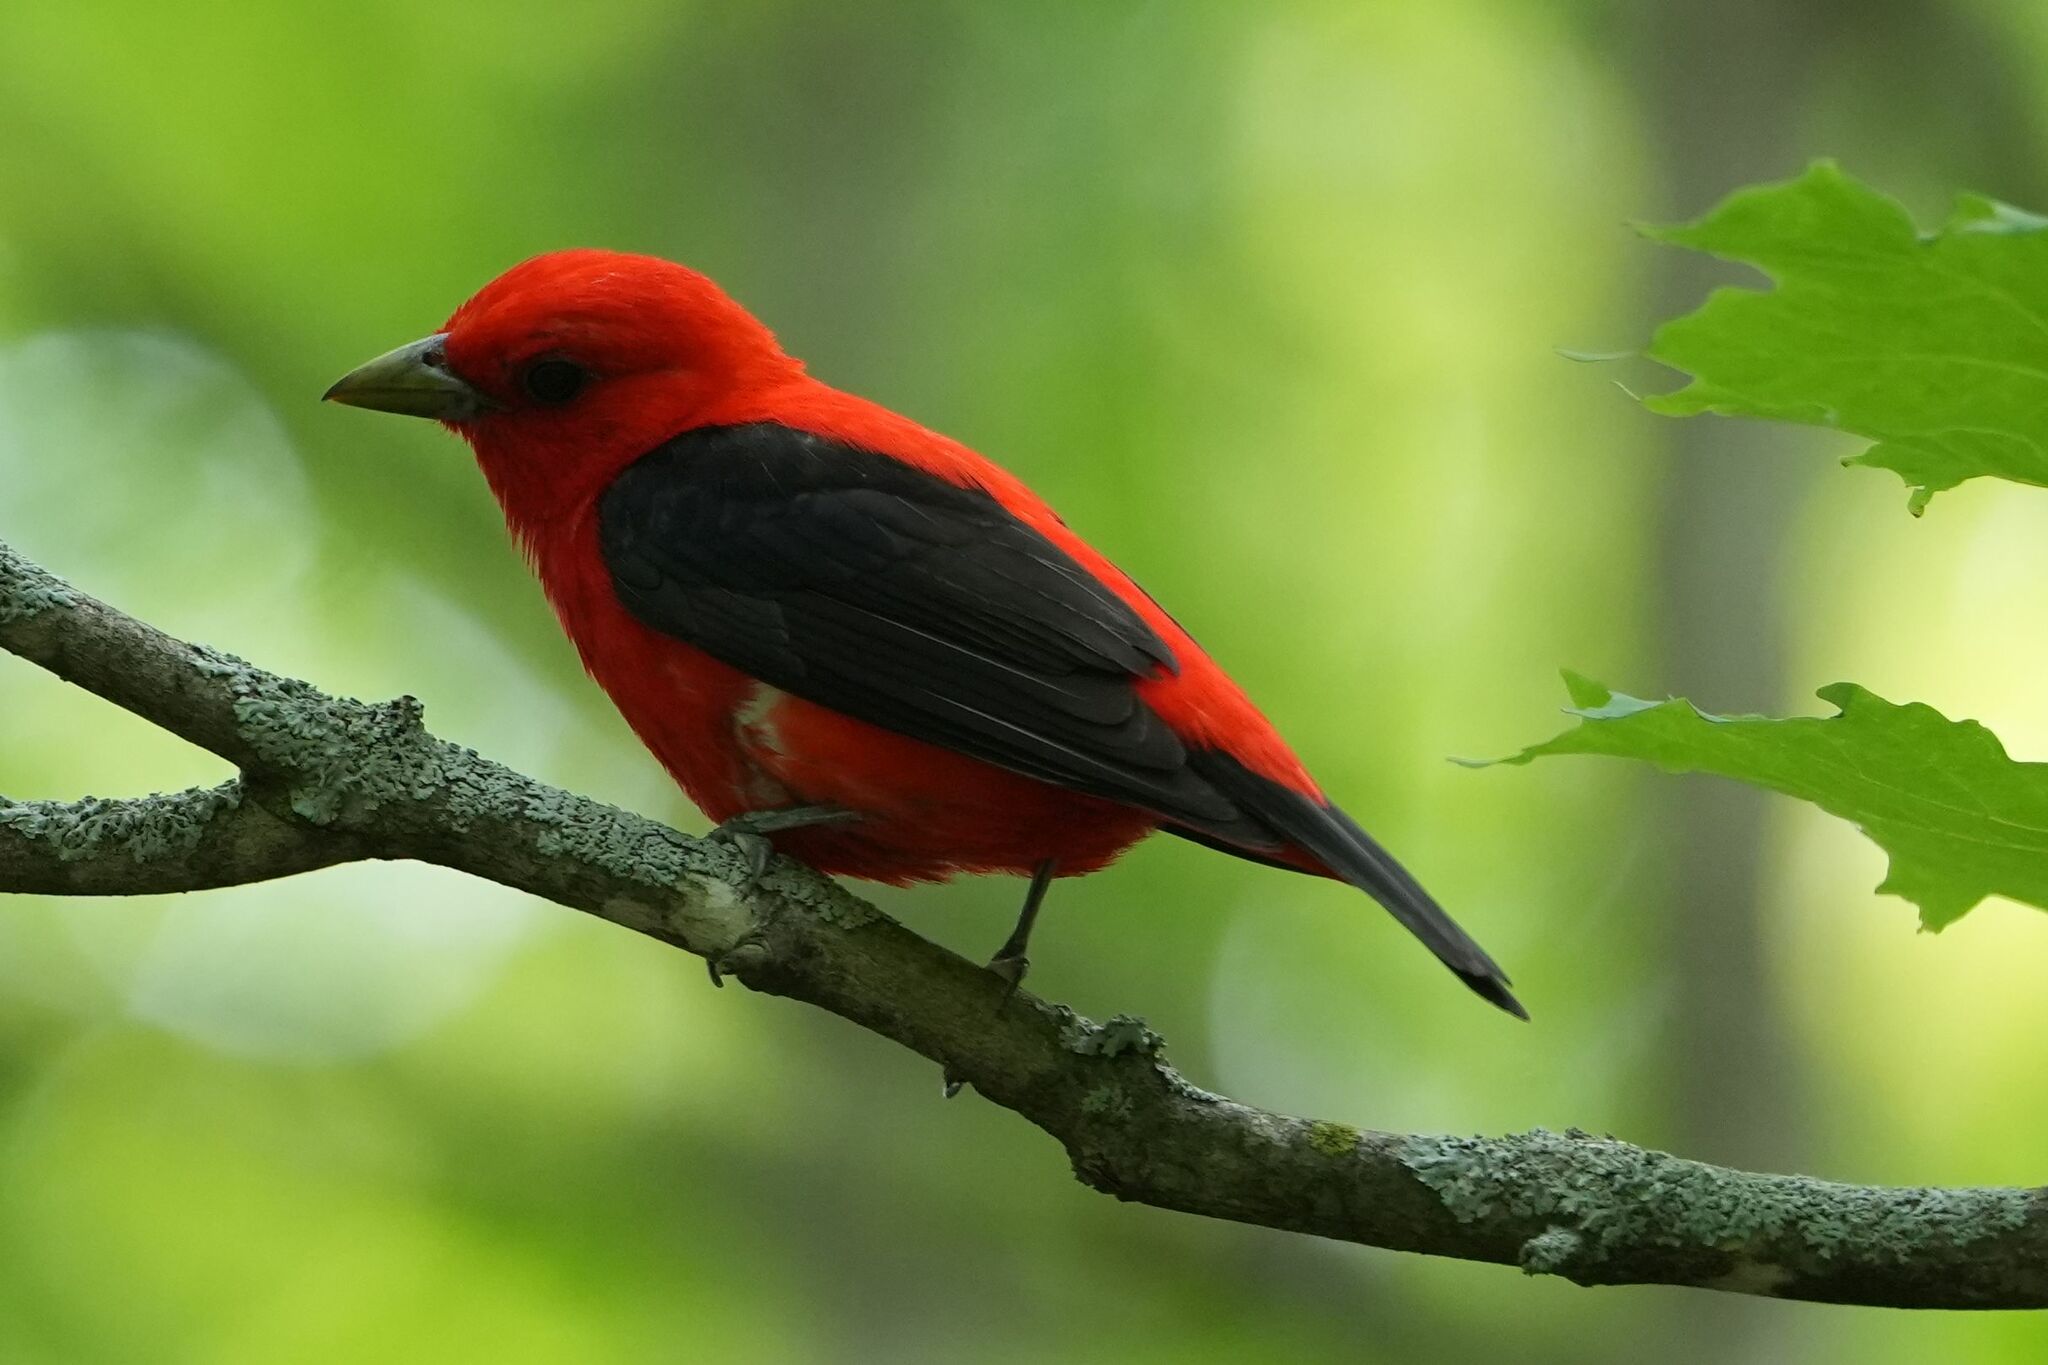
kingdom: Animalia
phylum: Chordata
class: Aves
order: Passeriformes
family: Cardinalidae
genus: Piranga
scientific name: Piranga olivacea
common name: Scarlet tanager
